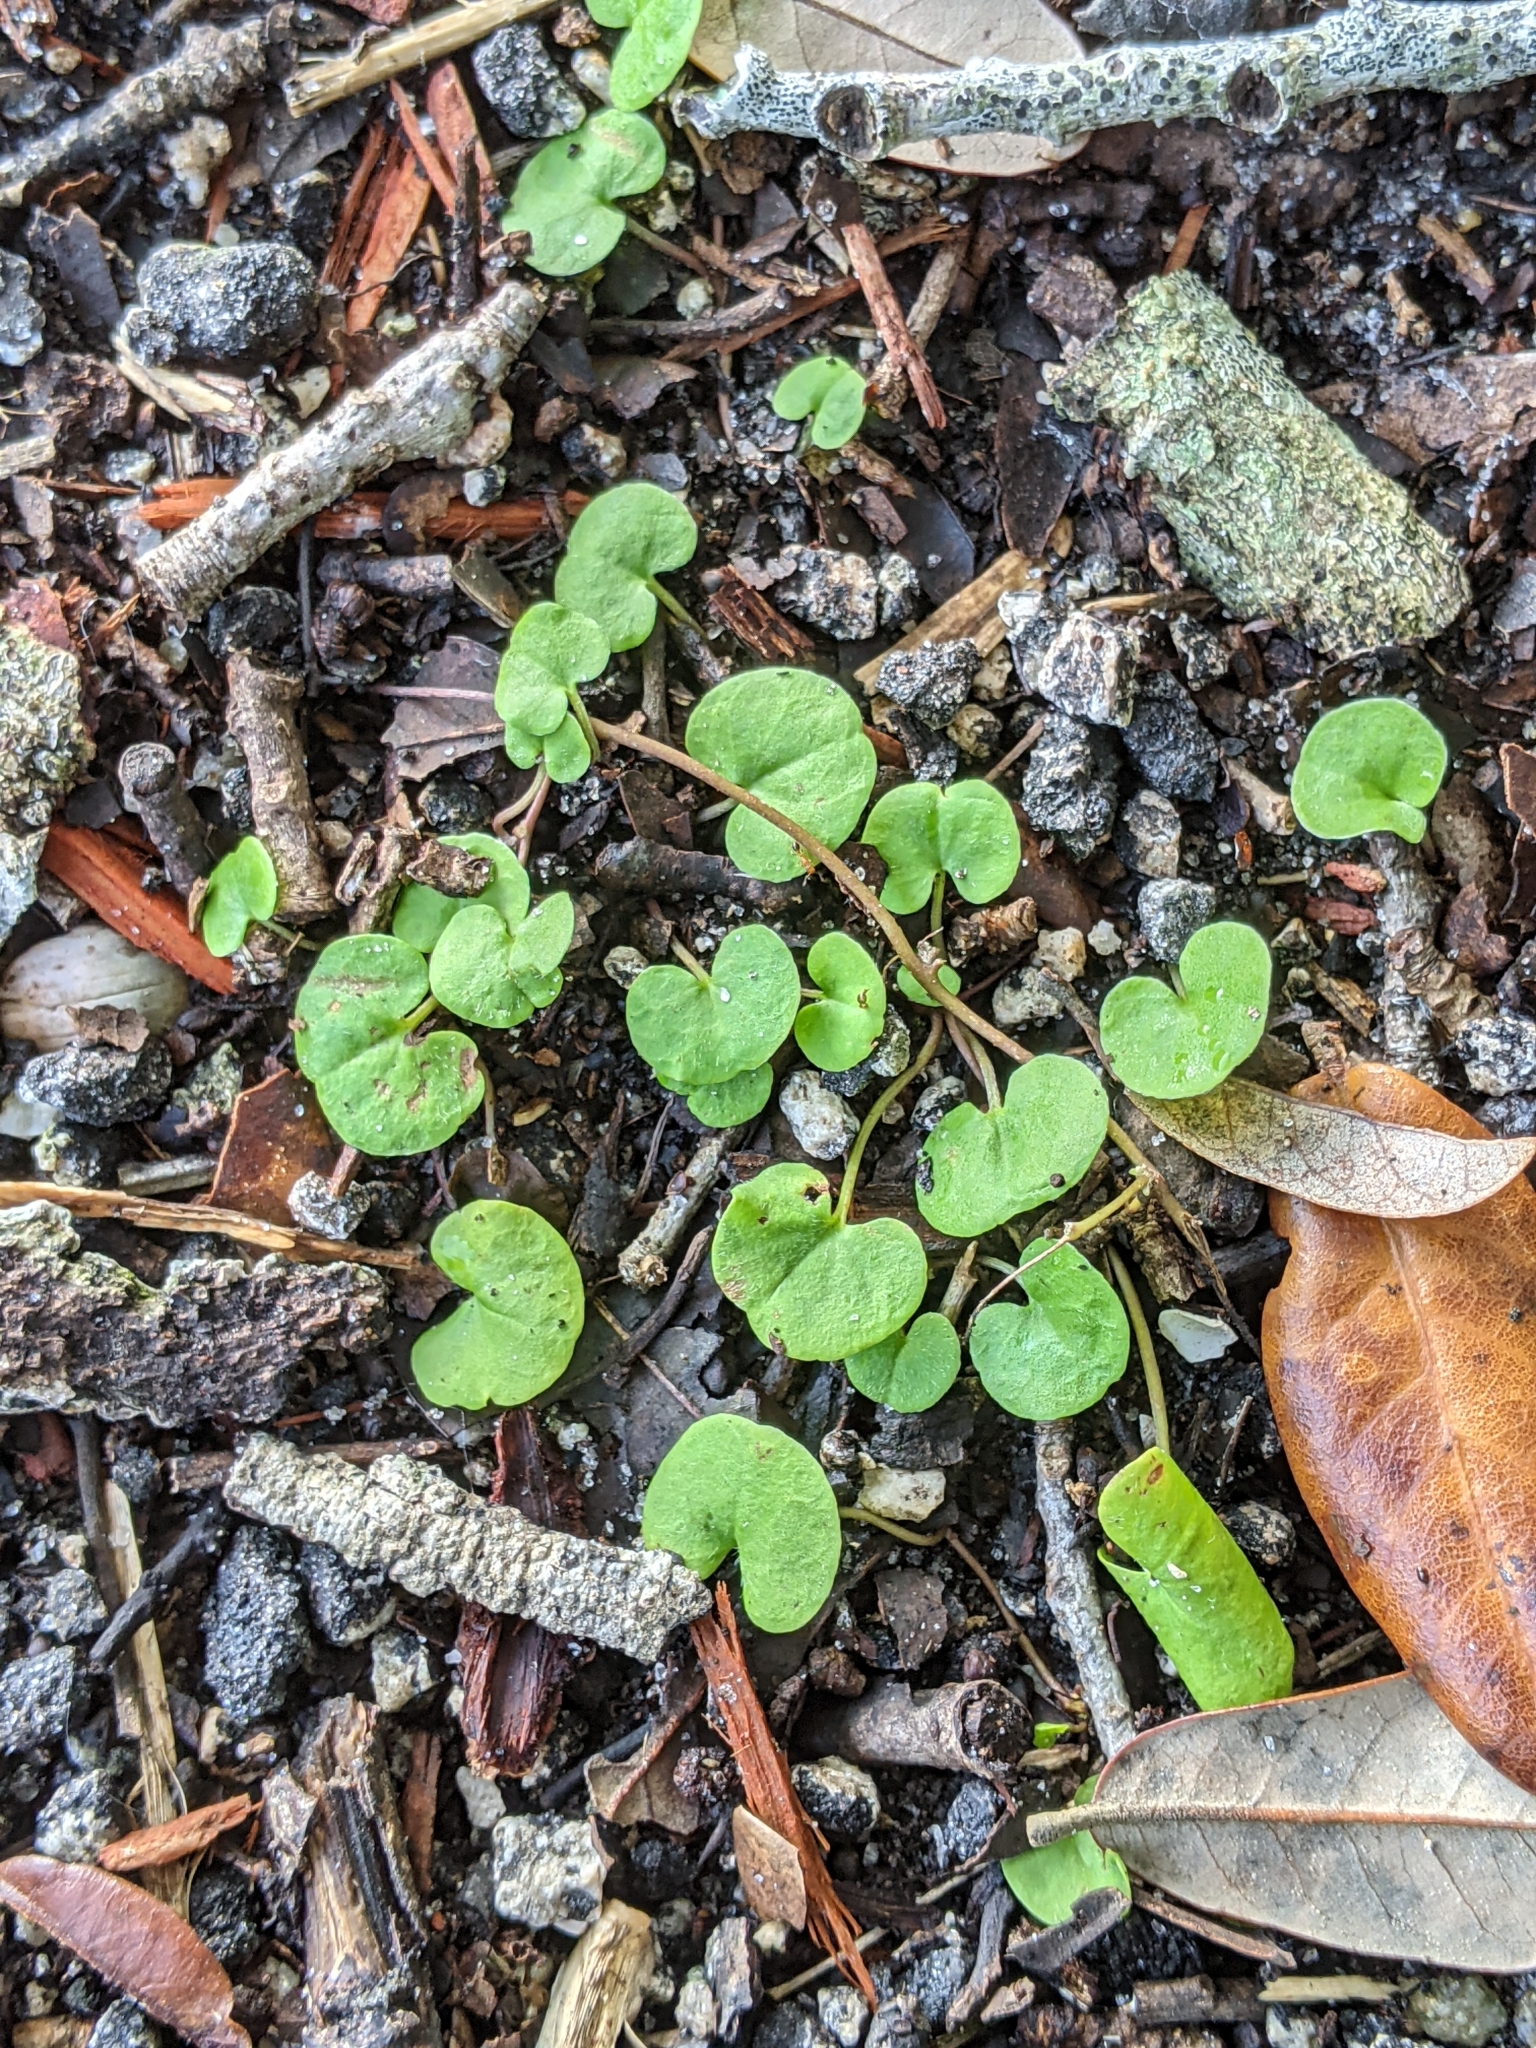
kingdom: Plantae
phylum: Tracheophyta
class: Magnoliopsida
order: Solanales
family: Convolvulaceae
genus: Dichondra
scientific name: Dichondra carolinensis
